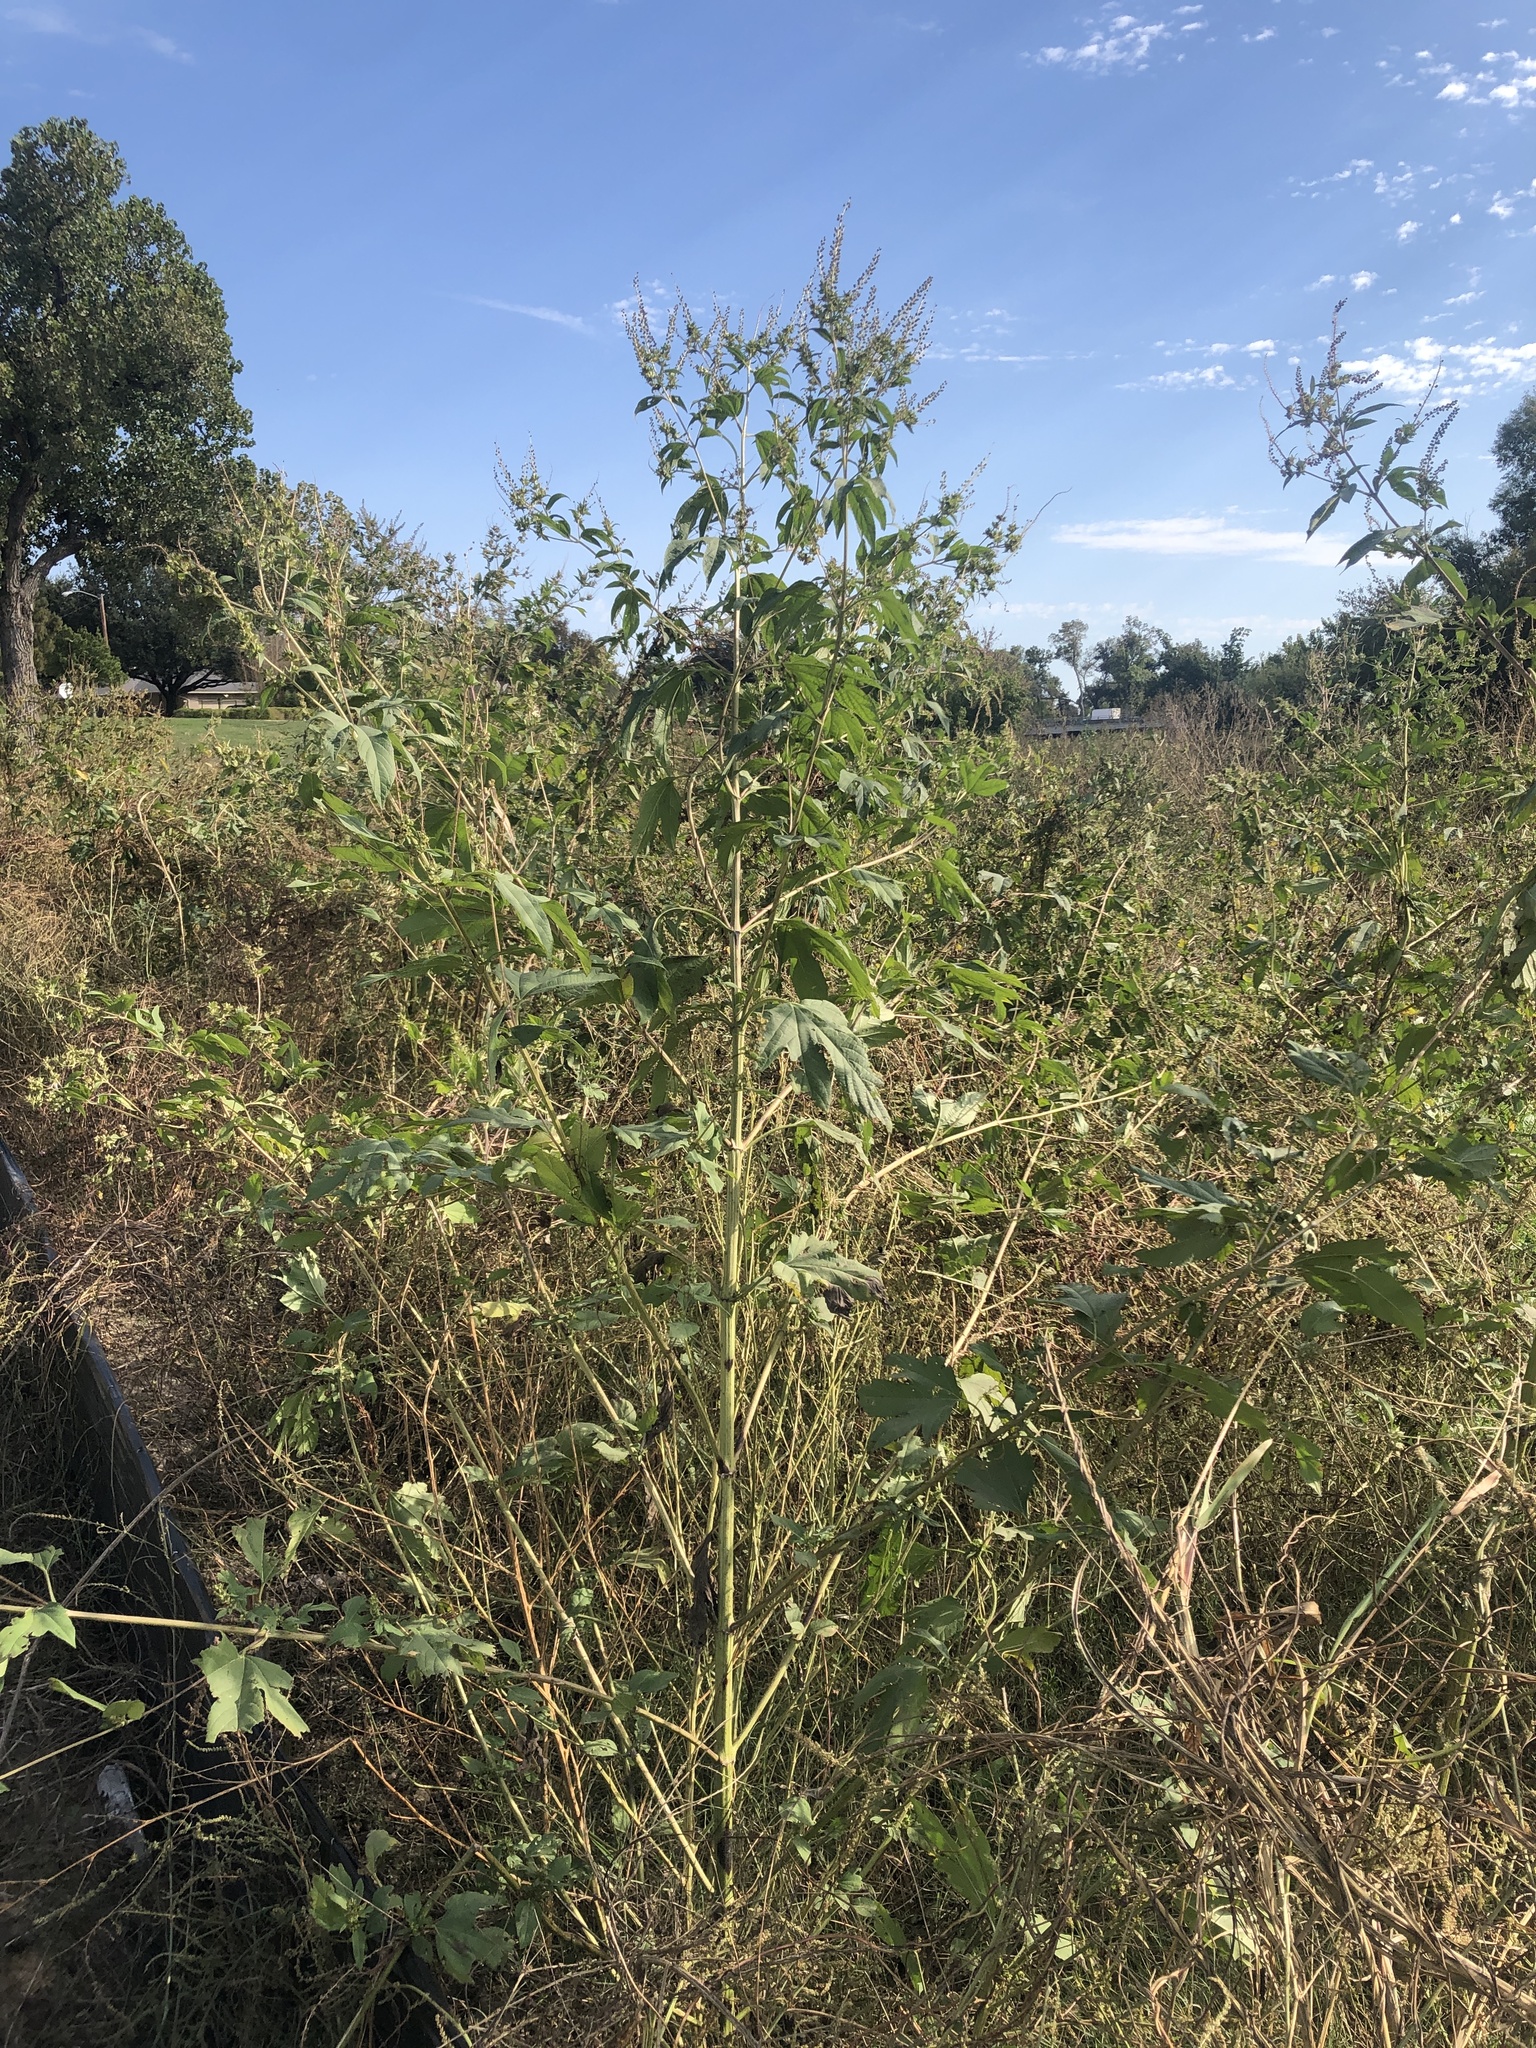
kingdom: Plantae
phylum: Tracheophyta
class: Magnoliopsida
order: Asterales
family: Asteraceae
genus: Ambrosia
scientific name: Ambrosia trifida
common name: Giant ragweed
